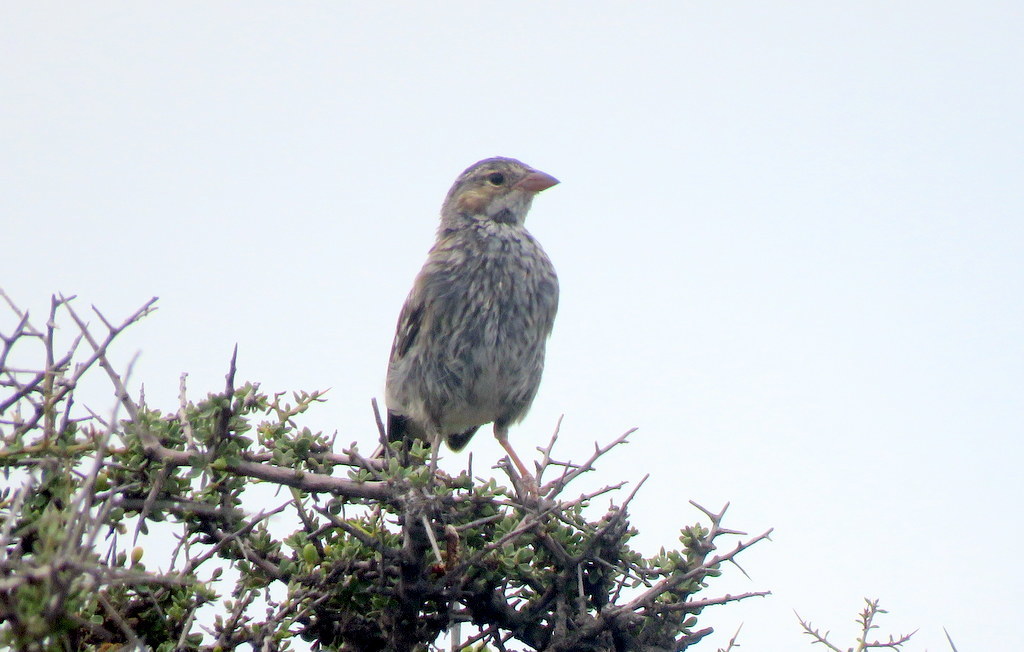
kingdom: Animalia
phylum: Chordata
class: Aves
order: Passeriformes
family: Thraupidae
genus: Rhopospina
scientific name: Rhopospina fruticeti
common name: Mourning sierra finch
